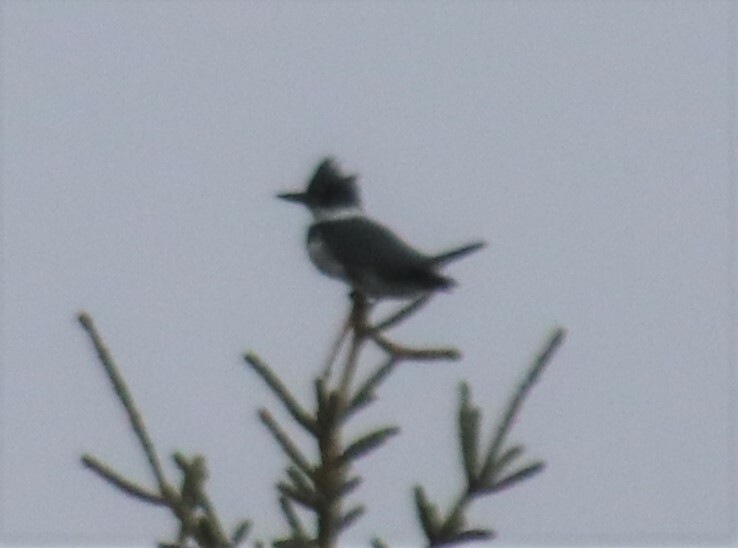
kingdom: Animalia
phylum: Chordata
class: Aves
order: Coraciiformes
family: Alcedinidae
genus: Megaceryle
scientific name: Megaceryle alcyon
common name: Belted kingfisher
